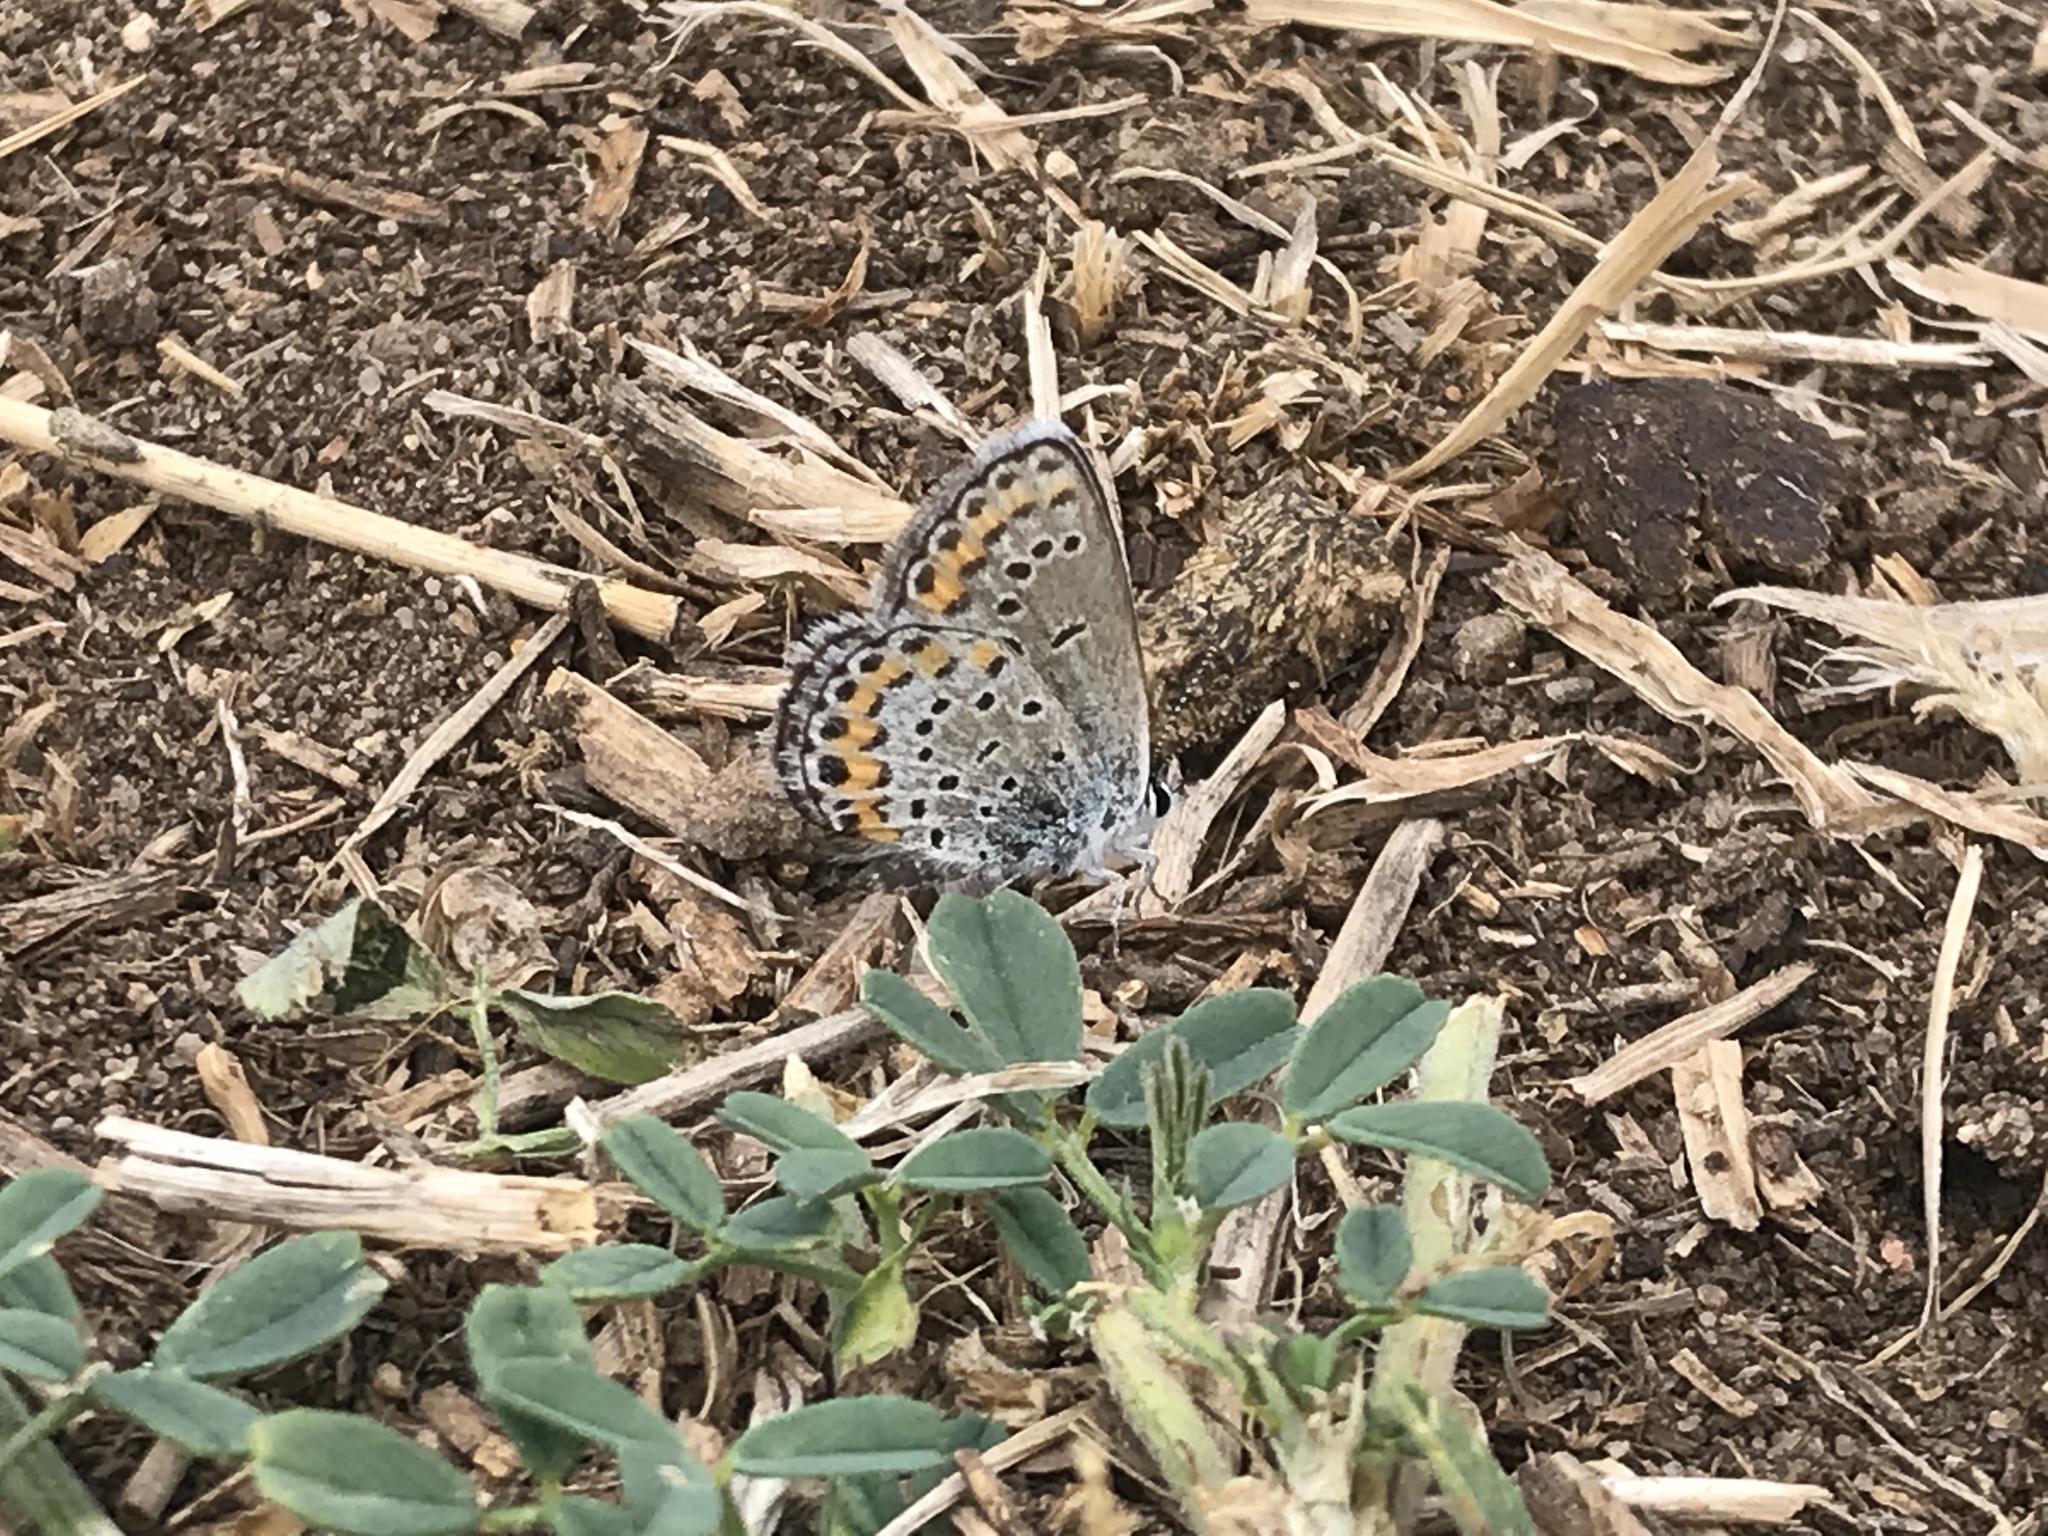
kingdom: Animalia
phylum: Arthropoda
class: Insecta
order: Lepidoptera
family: Lycaenidae
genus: Lycaeides
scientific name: Lycaeides melissa
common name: Melissa blue
